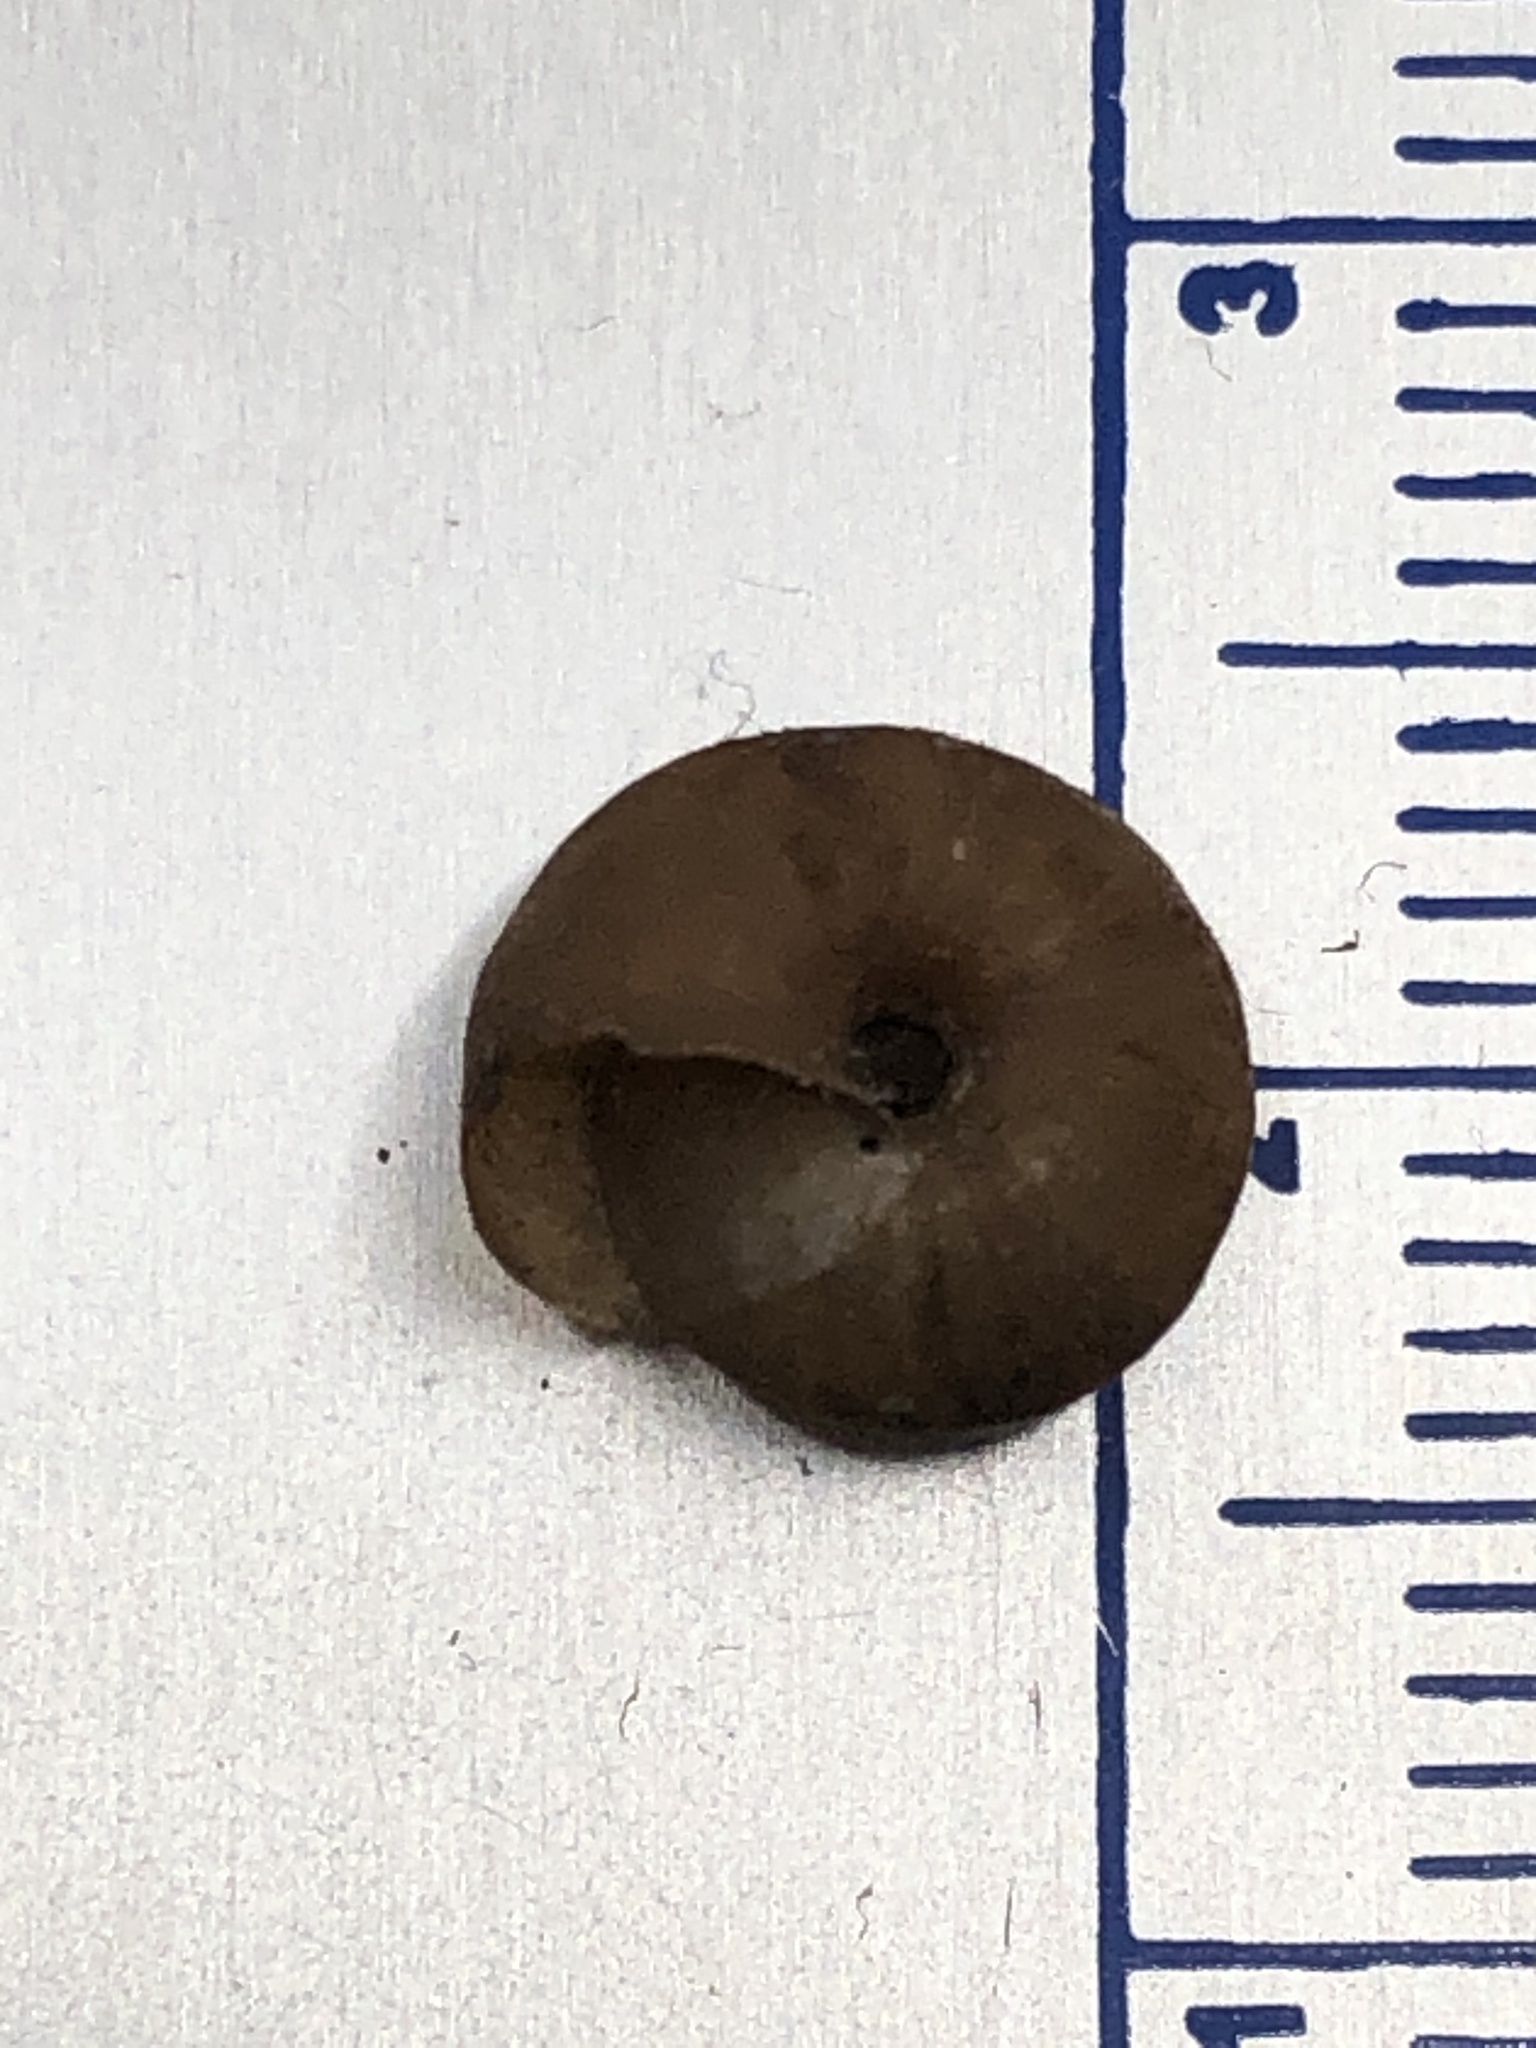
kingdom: Animalia
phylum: Mollusca
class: Gastropoda
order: Stylommatophora
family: Hygromiidae
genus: Trochulus
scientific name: Trochulus hispidus
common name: Hairy snail
